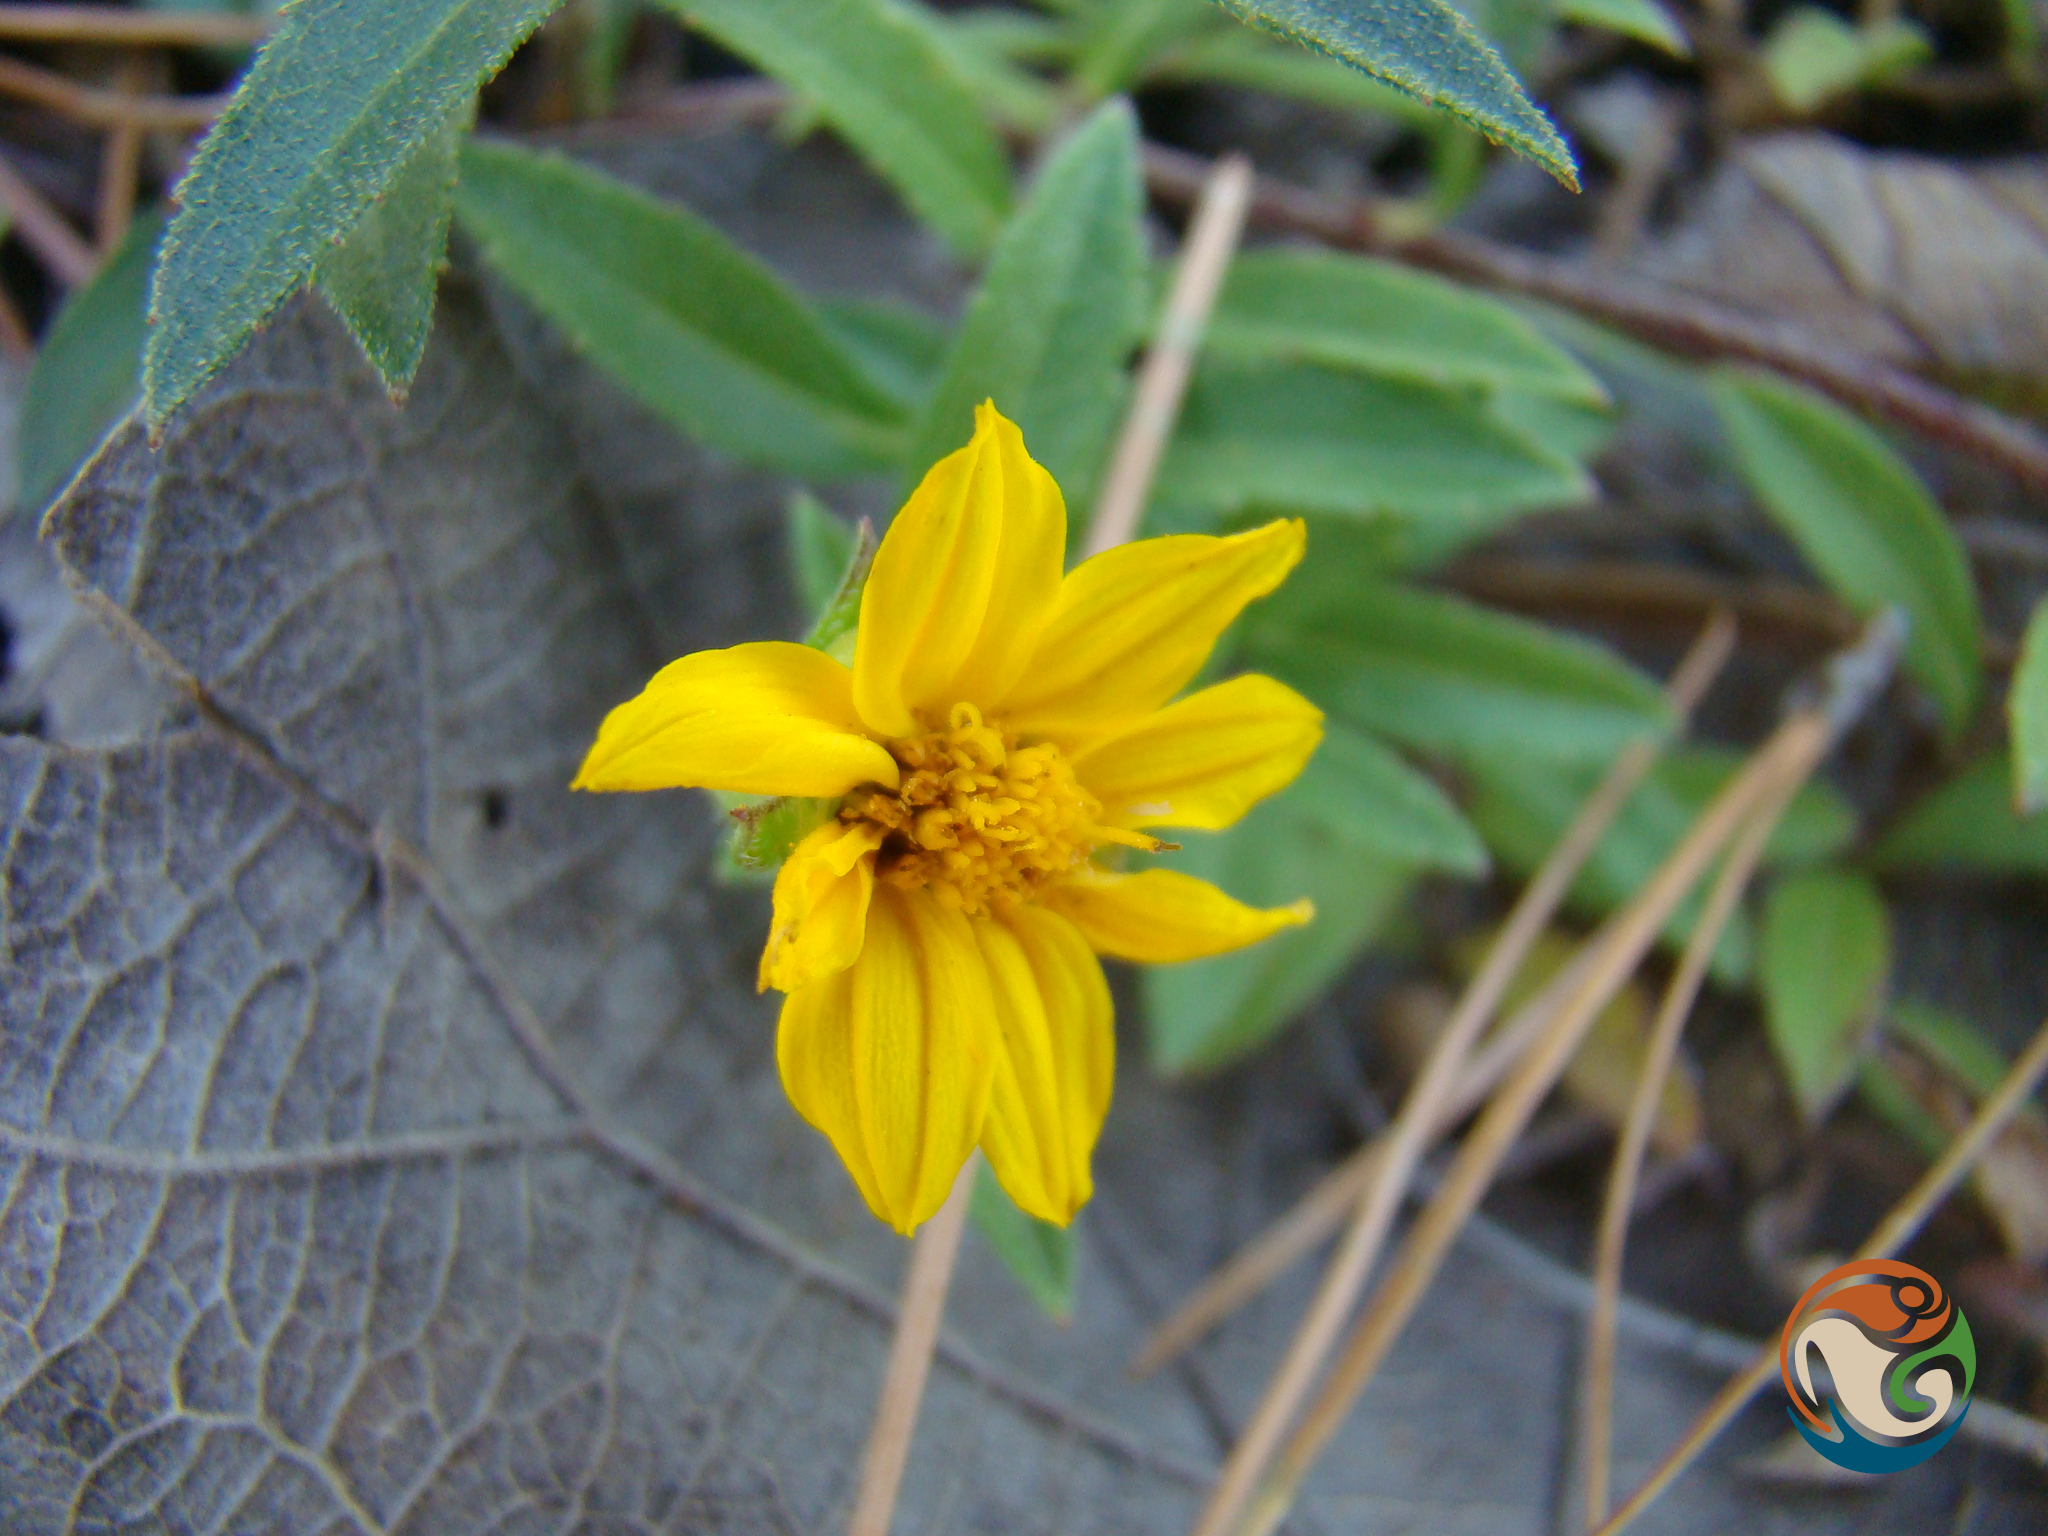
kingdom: Plantae
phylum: Tracheophyta
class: Magnoliopsida
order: Asterales
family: Asteraceae
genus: Perymenium
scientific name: Perymenium buphthalmoides
